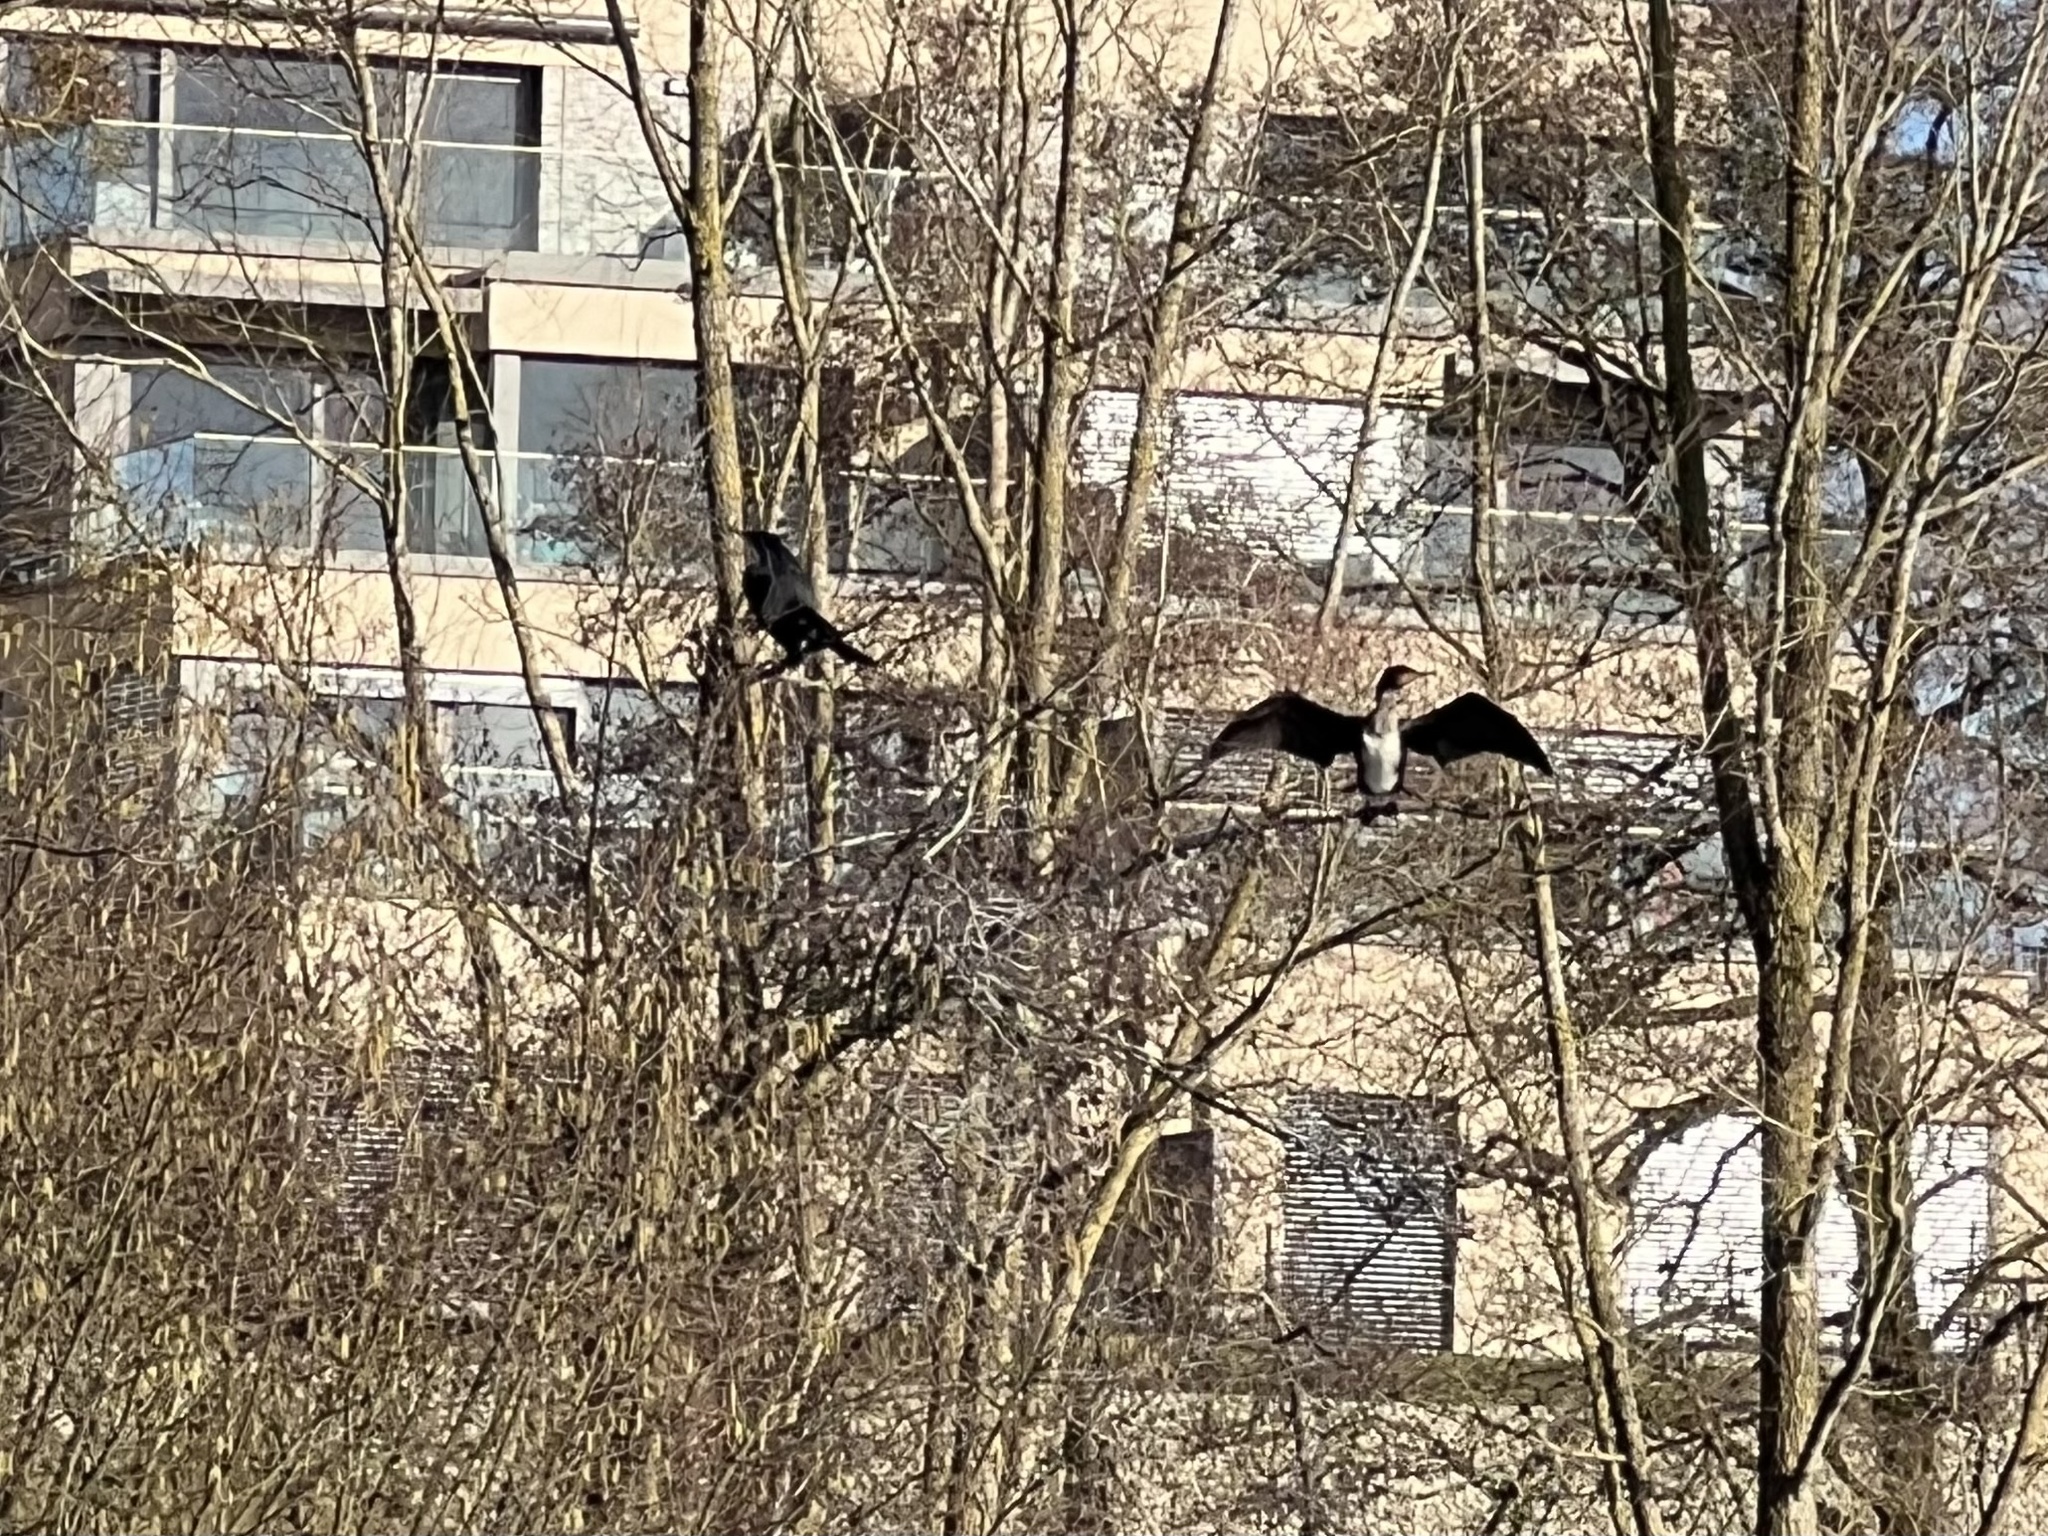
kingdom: Animalia
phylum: Chordata
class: Aves
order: Suliformes
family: Phalacrocoracidae
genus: Phalacrocorax
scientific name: Phalacrocorax carbo
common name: Great cormorant
